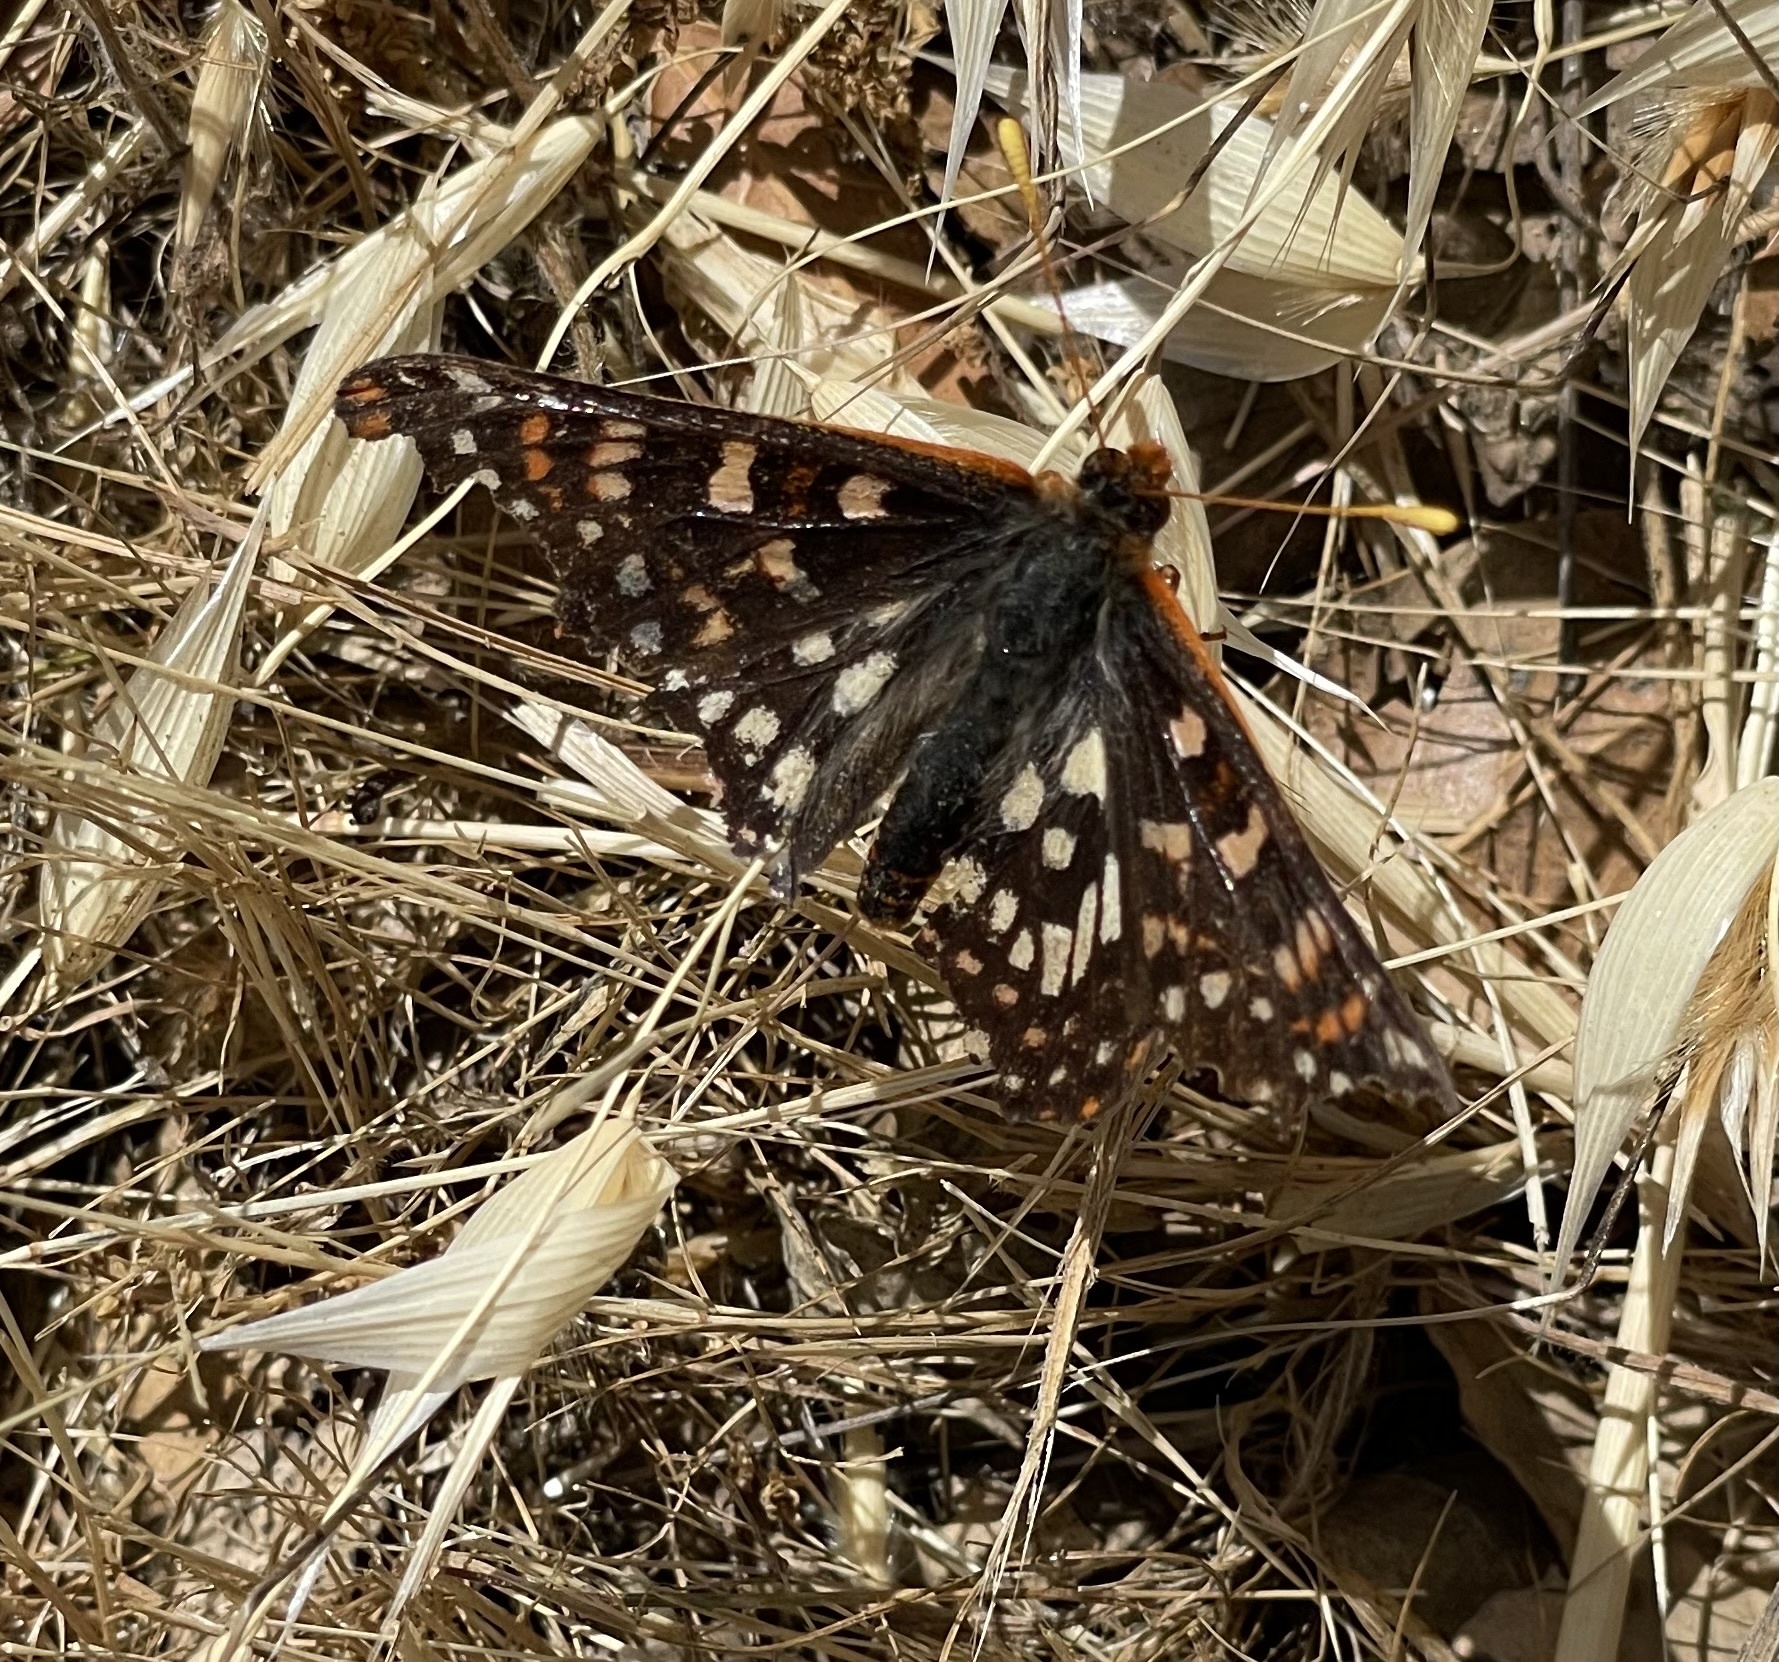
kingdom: Animalia
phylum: Arthropoda
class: Insecta
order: Lepidoptera
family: Nymphalidae
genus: Occidryas
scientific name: Occidryas chalcedona
